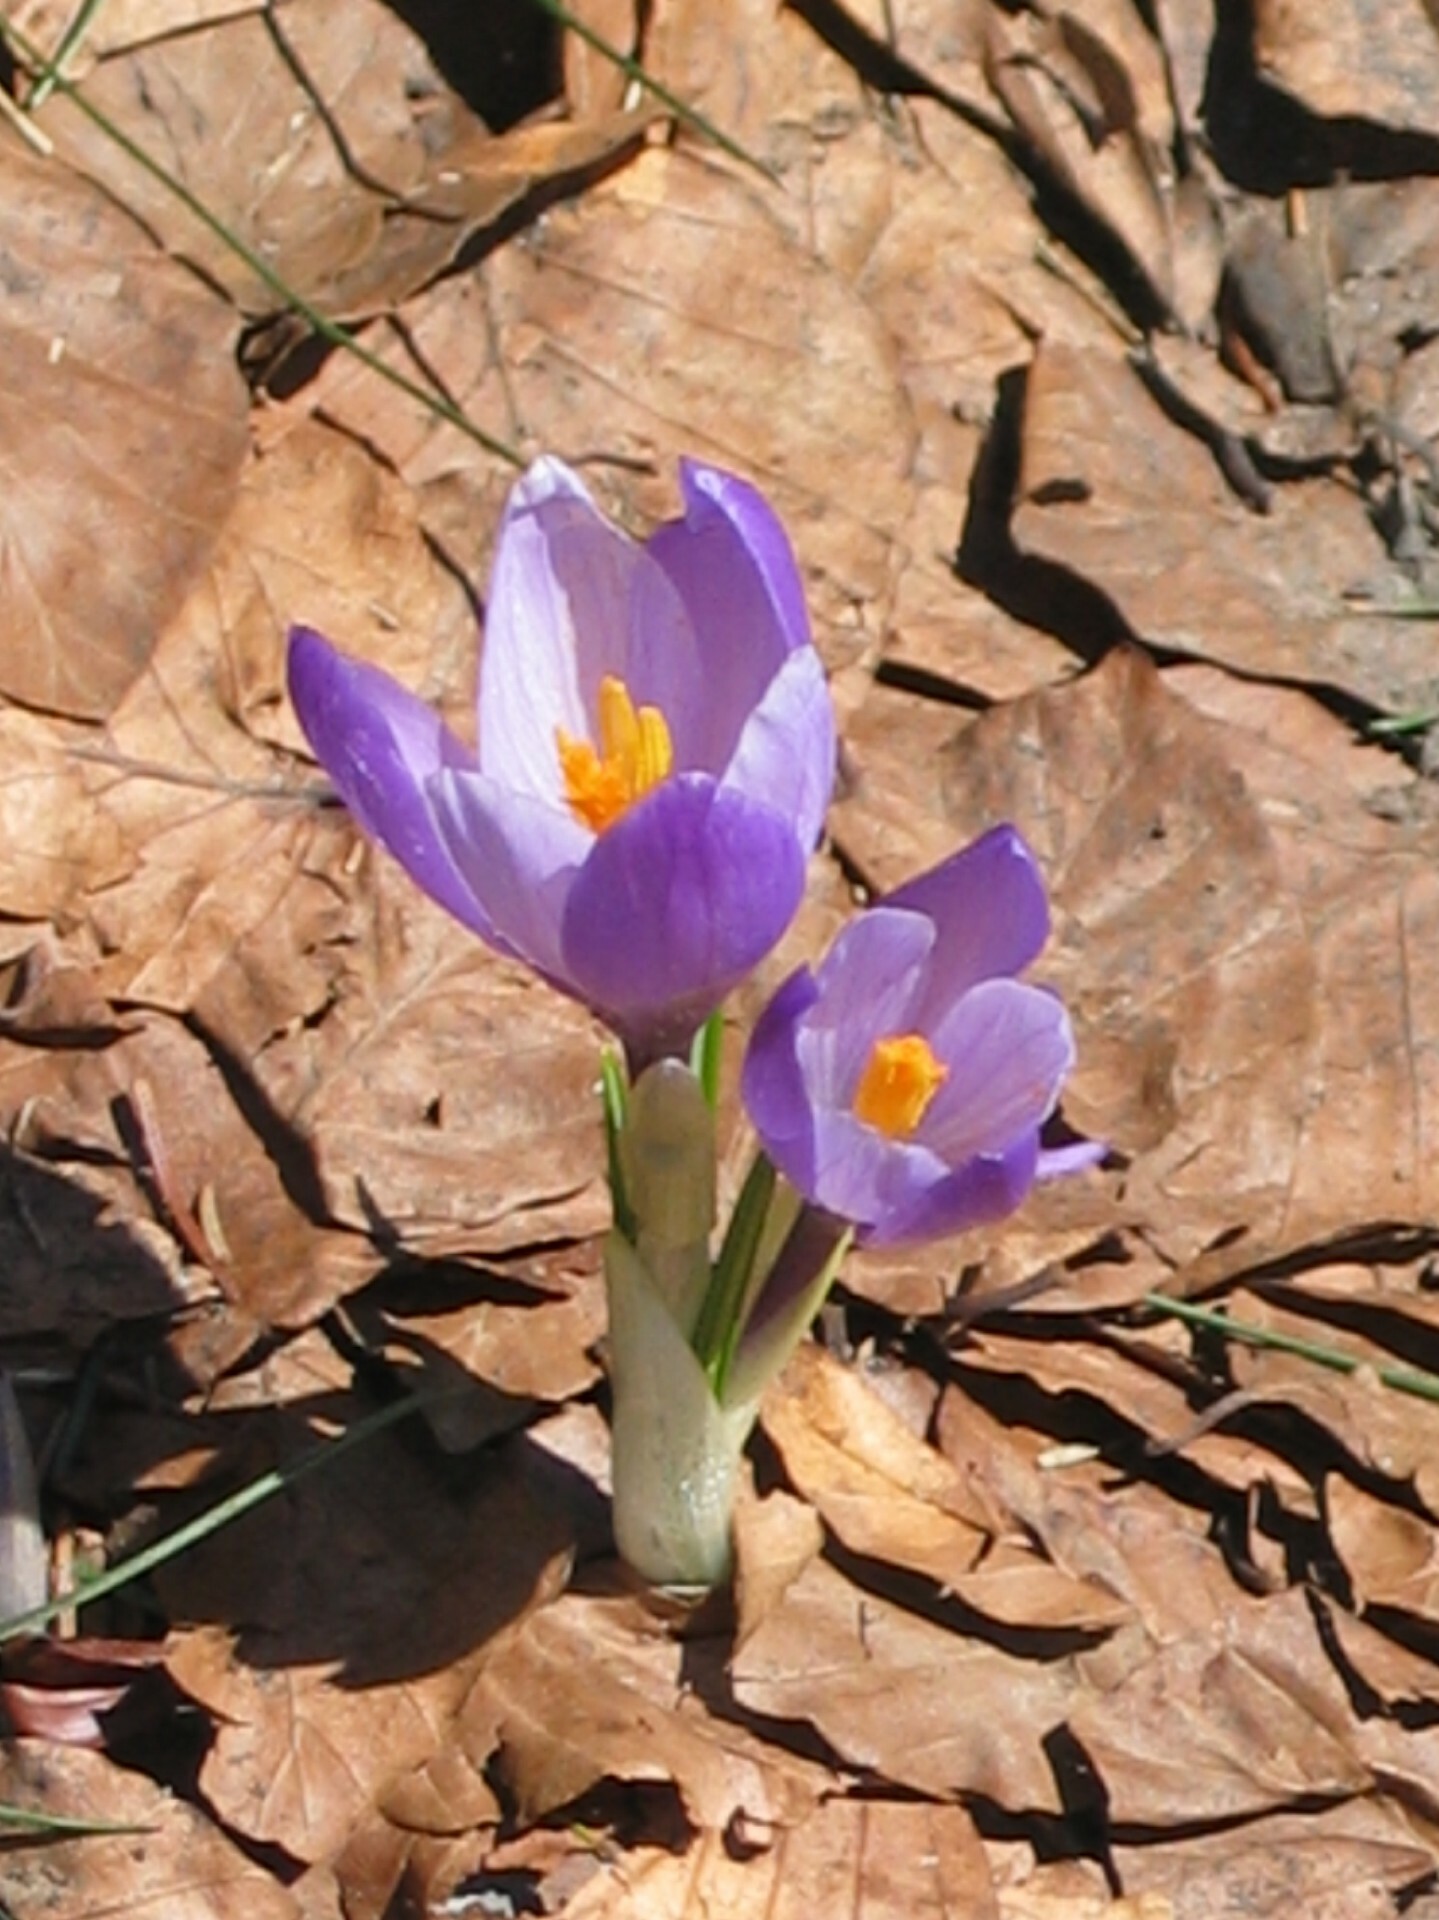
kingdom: Plantae
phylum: Tracheophyta
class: Liliopsida
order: Asparagales
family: Iridaceae
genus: Crocus
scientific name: Crocus neapolitanus
